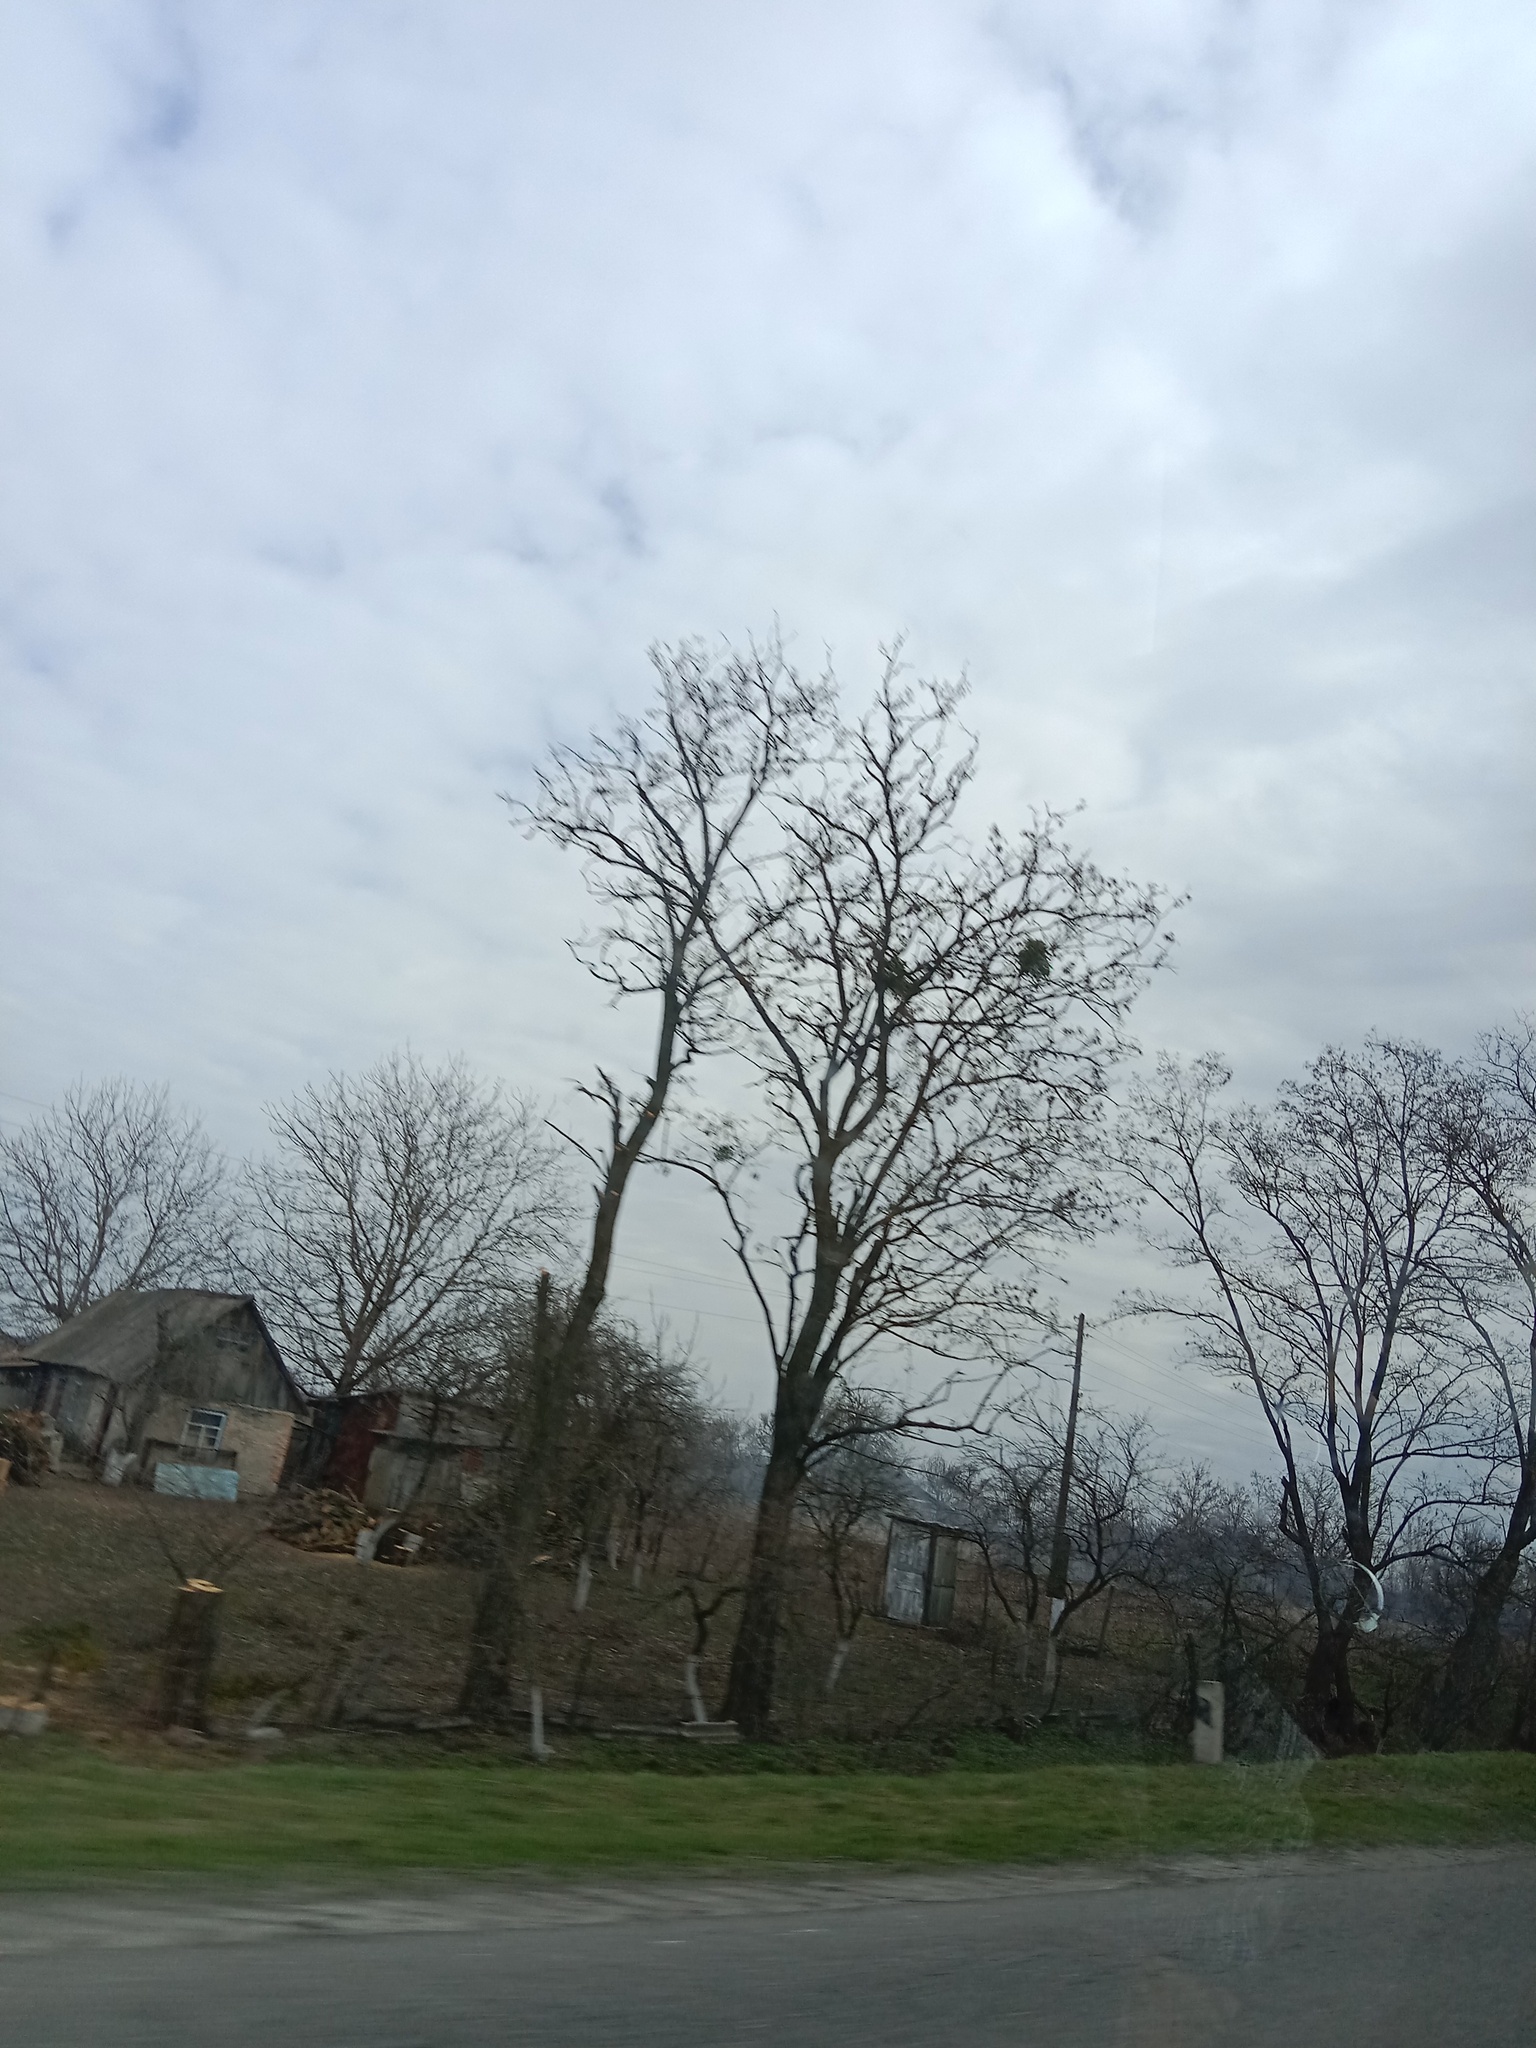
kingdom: Plantae
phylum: Tracheophyta
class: Magnoliopsida
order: Santalales
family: Viscaceae
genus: Viscum
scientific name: Viscum album
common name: Mistletoe
